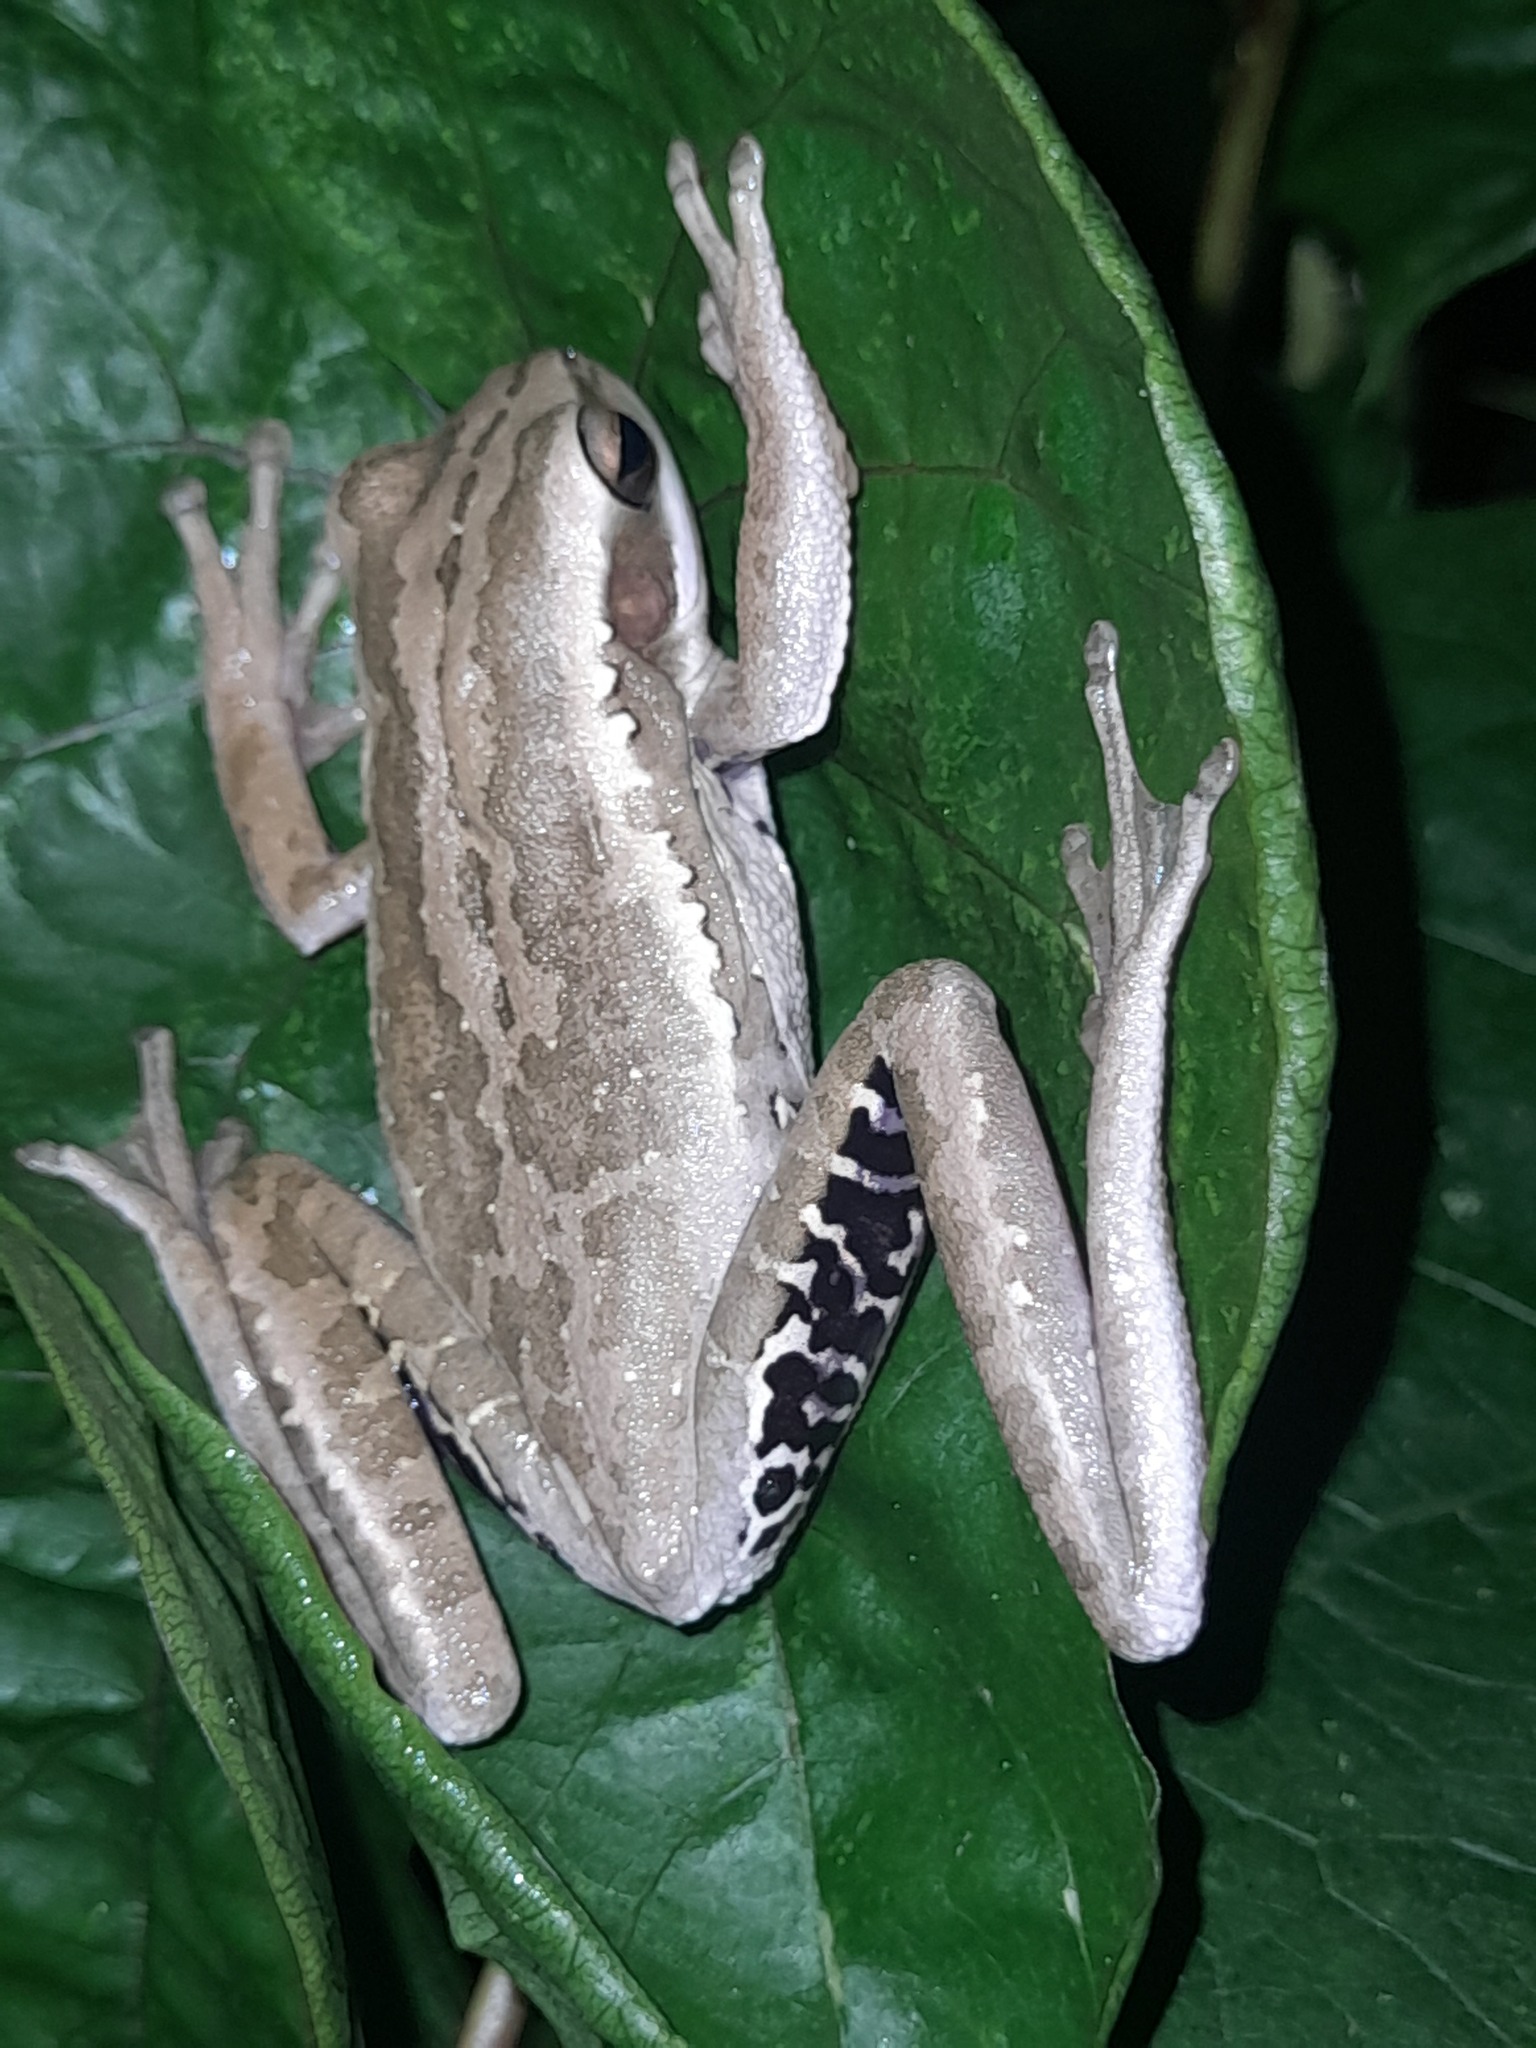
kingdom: Animalia
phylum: Chordata
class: Amphibia
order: Anura
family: Hylidae
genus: Boana
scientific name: Boana pulchella
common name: Montevideo treefrog
